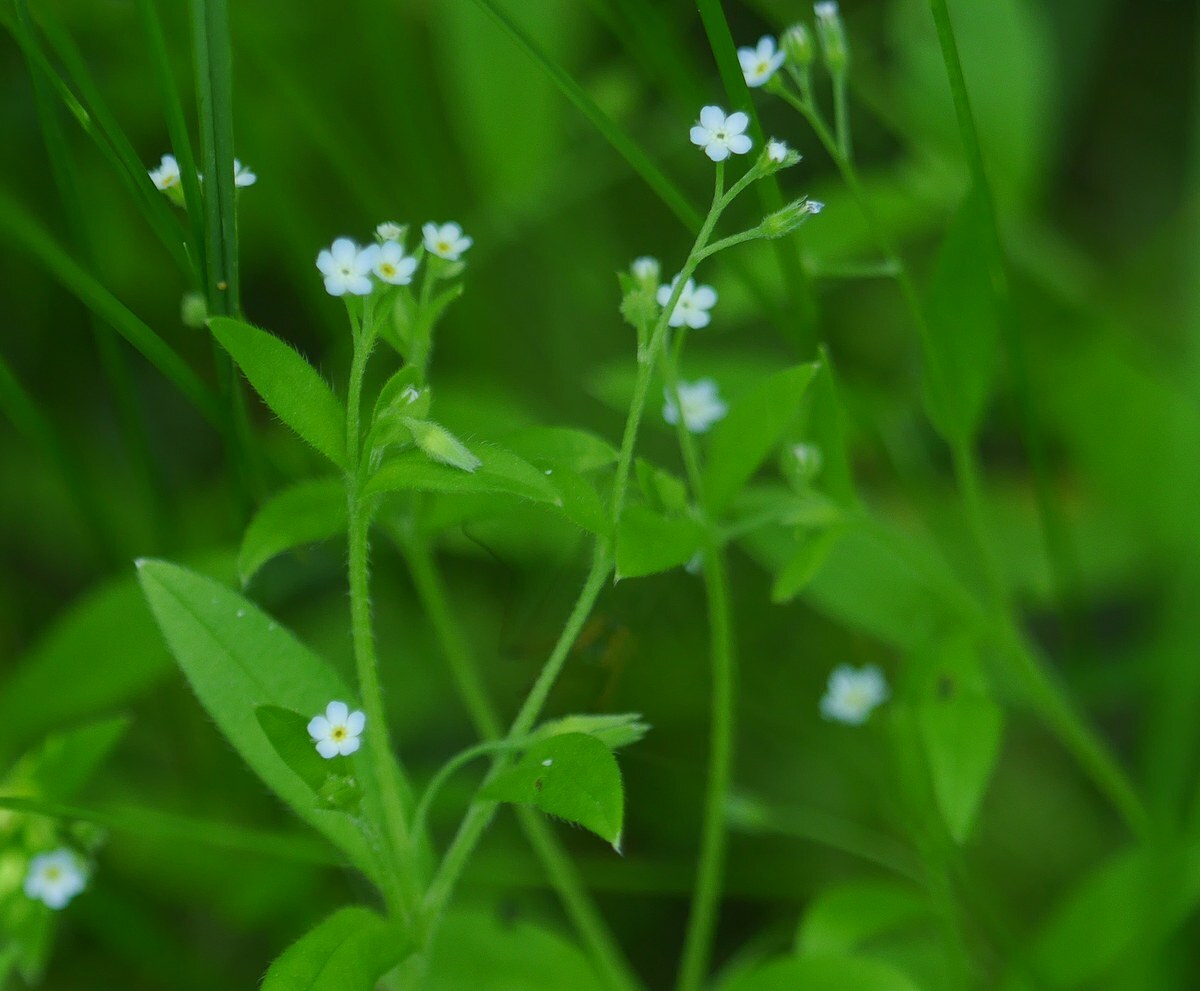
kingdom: Plantae
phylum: Tracheophyta
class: Magnoliopsida
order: Boraginales
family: Boraginaceae
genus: Myosotis
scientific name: Myosotis sparsiflora
